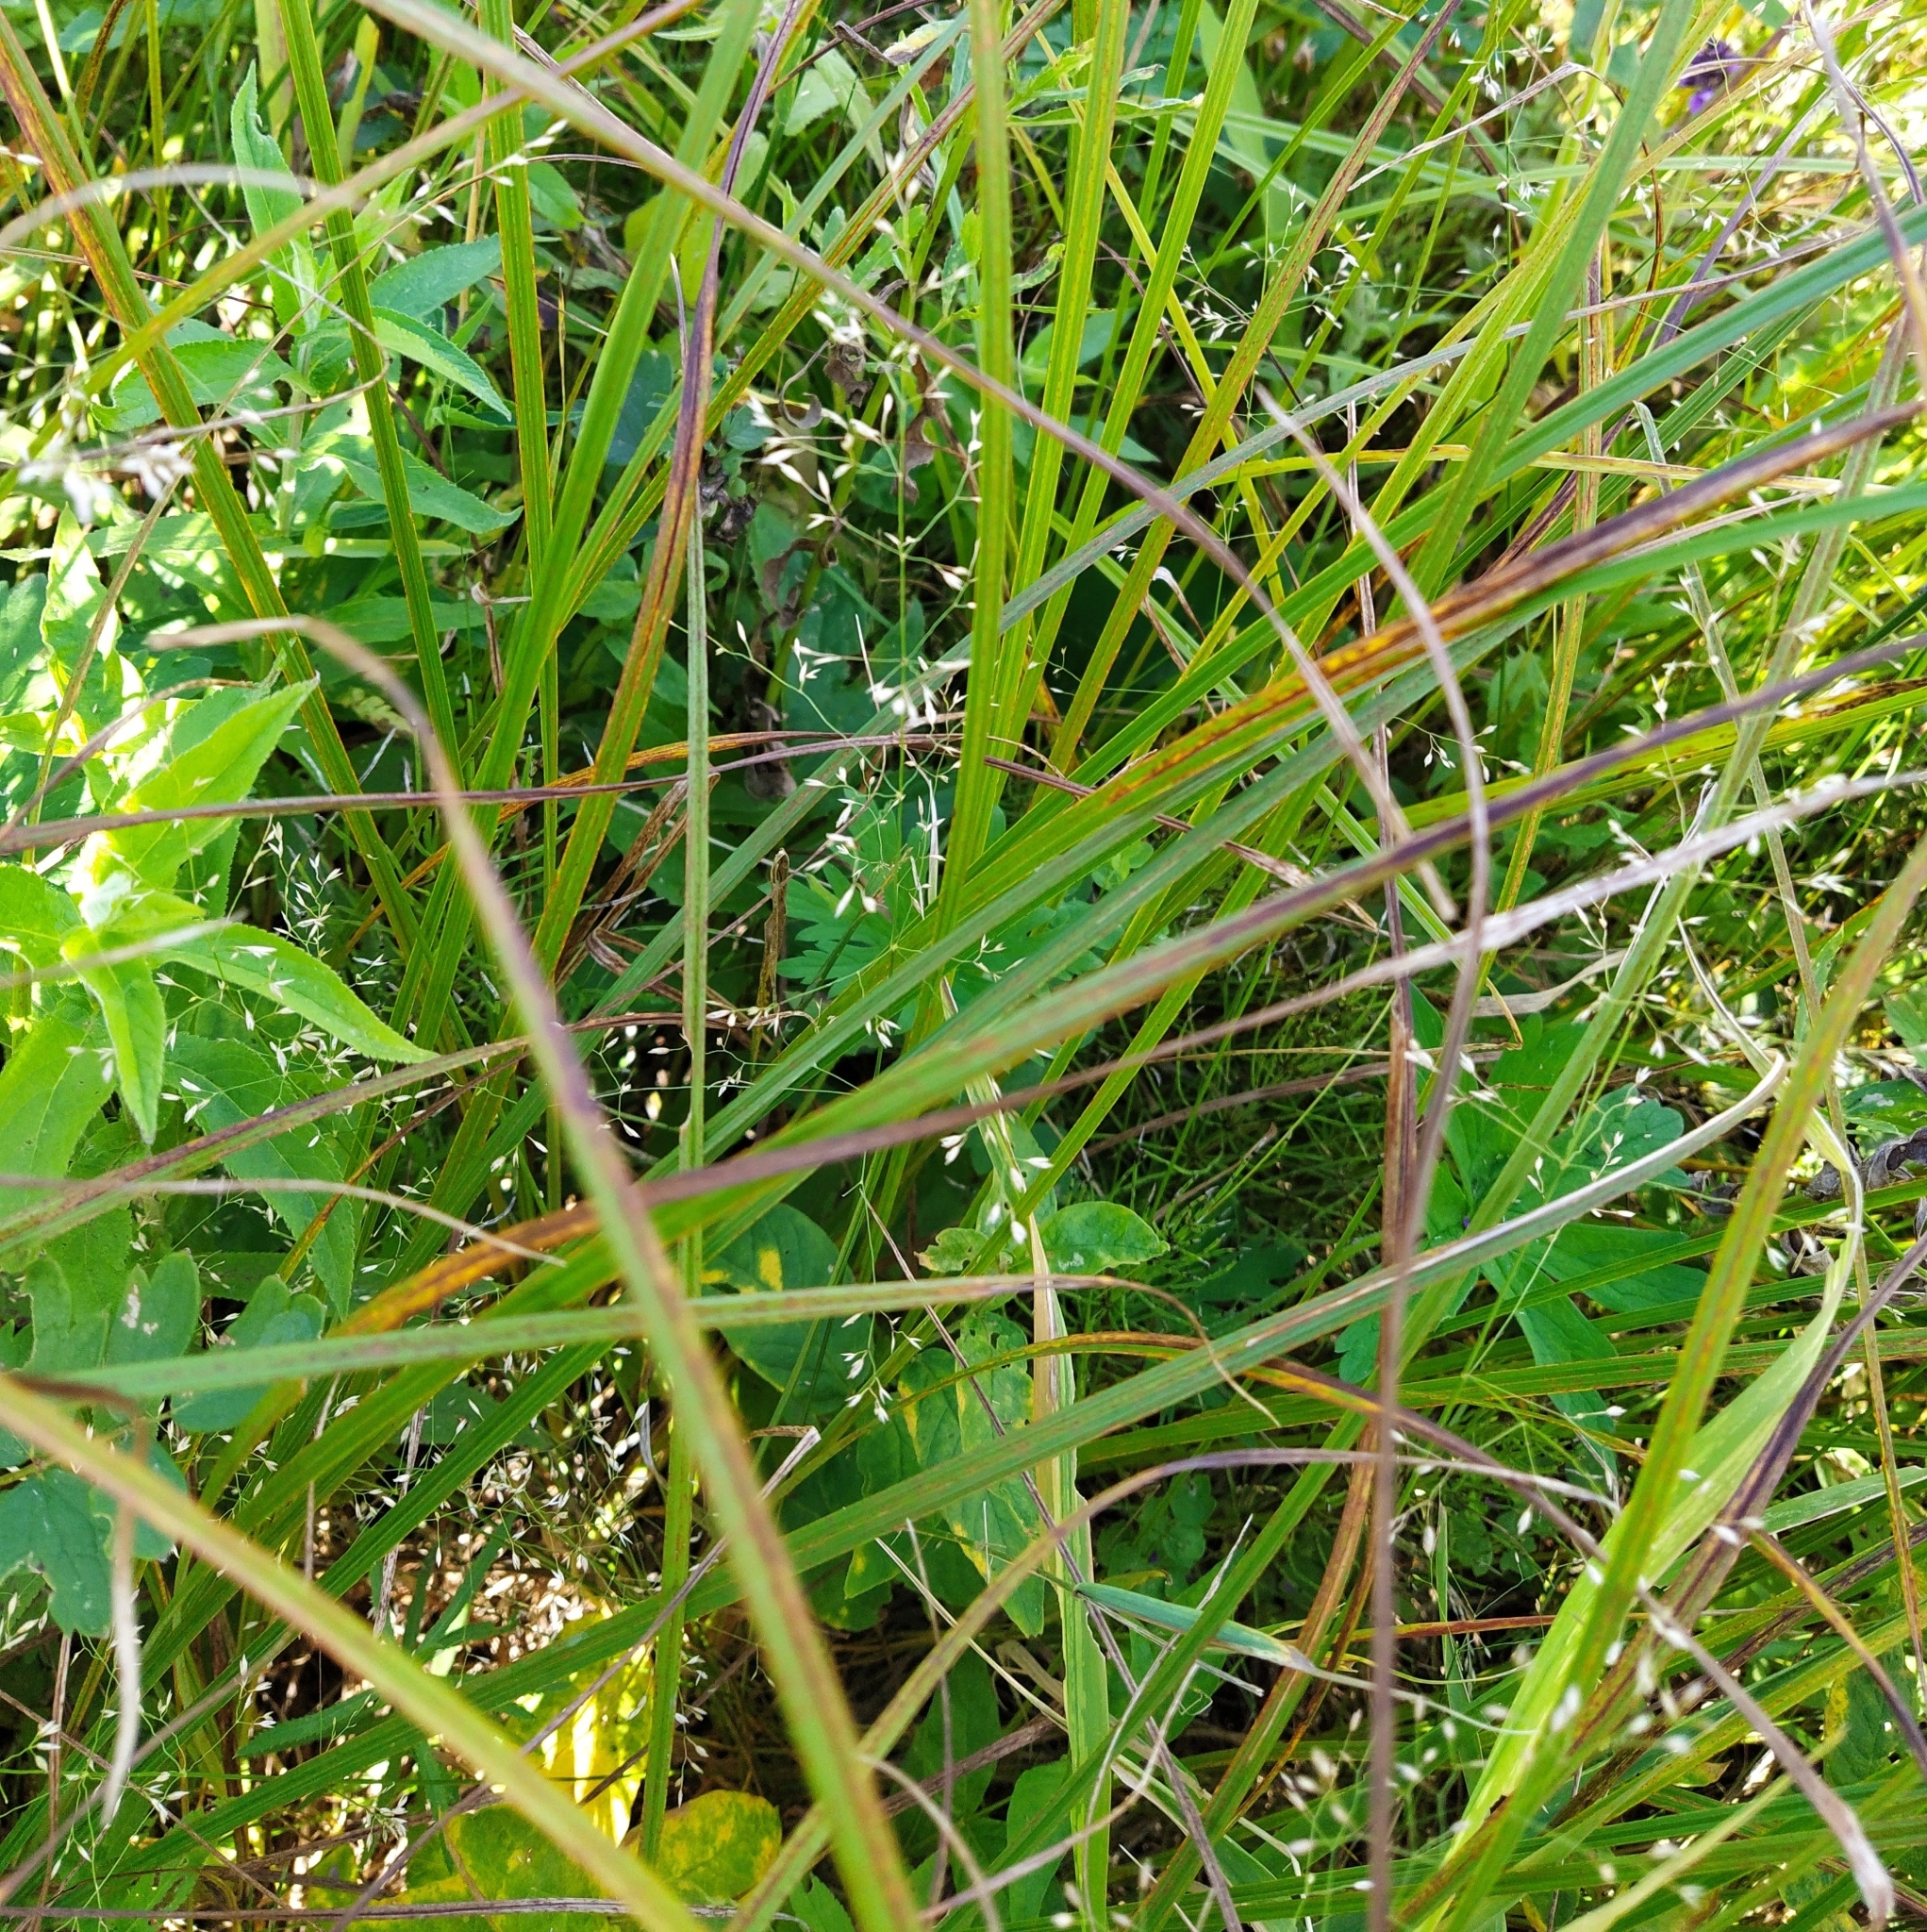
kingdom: Plantae
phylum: Tracheophyta
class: Liliopsida
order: Poales
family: Poaceae
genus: Agrostis
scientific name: Agrostis capillaris
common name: Colonial bentgrass
